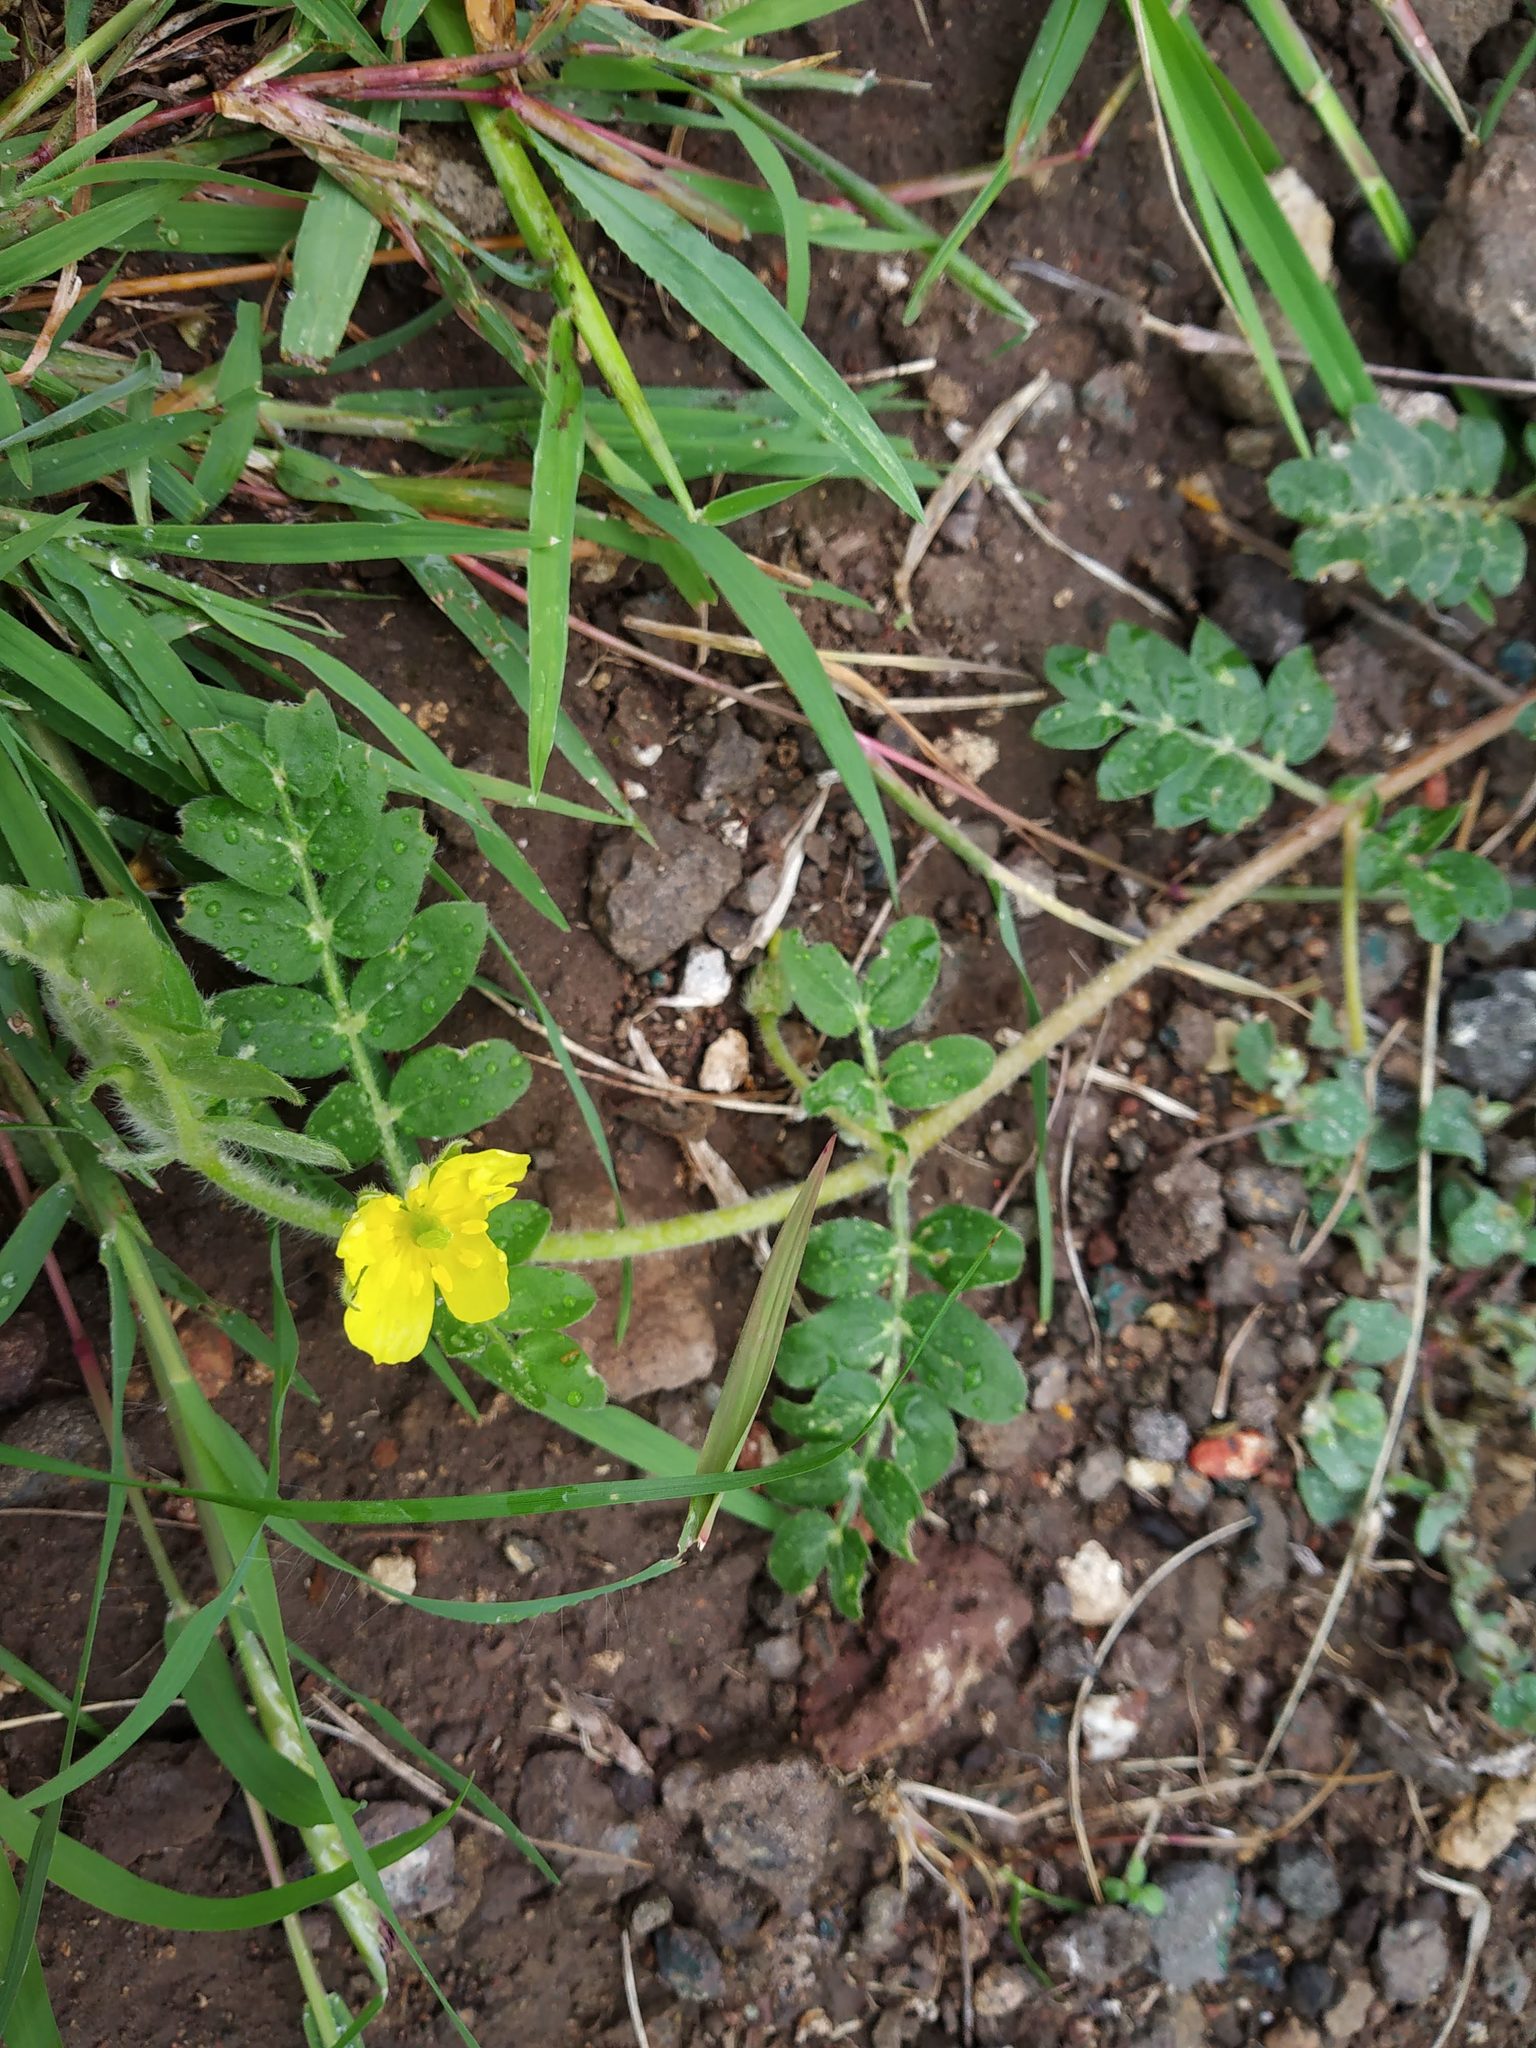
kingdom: Plantae
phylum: Tracheophyta
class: Magnoliopsida
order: Zygophyllales
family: Zygophyllaceae
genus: Tribulus
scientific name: Tribulus terrestris
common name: Puncturevine
